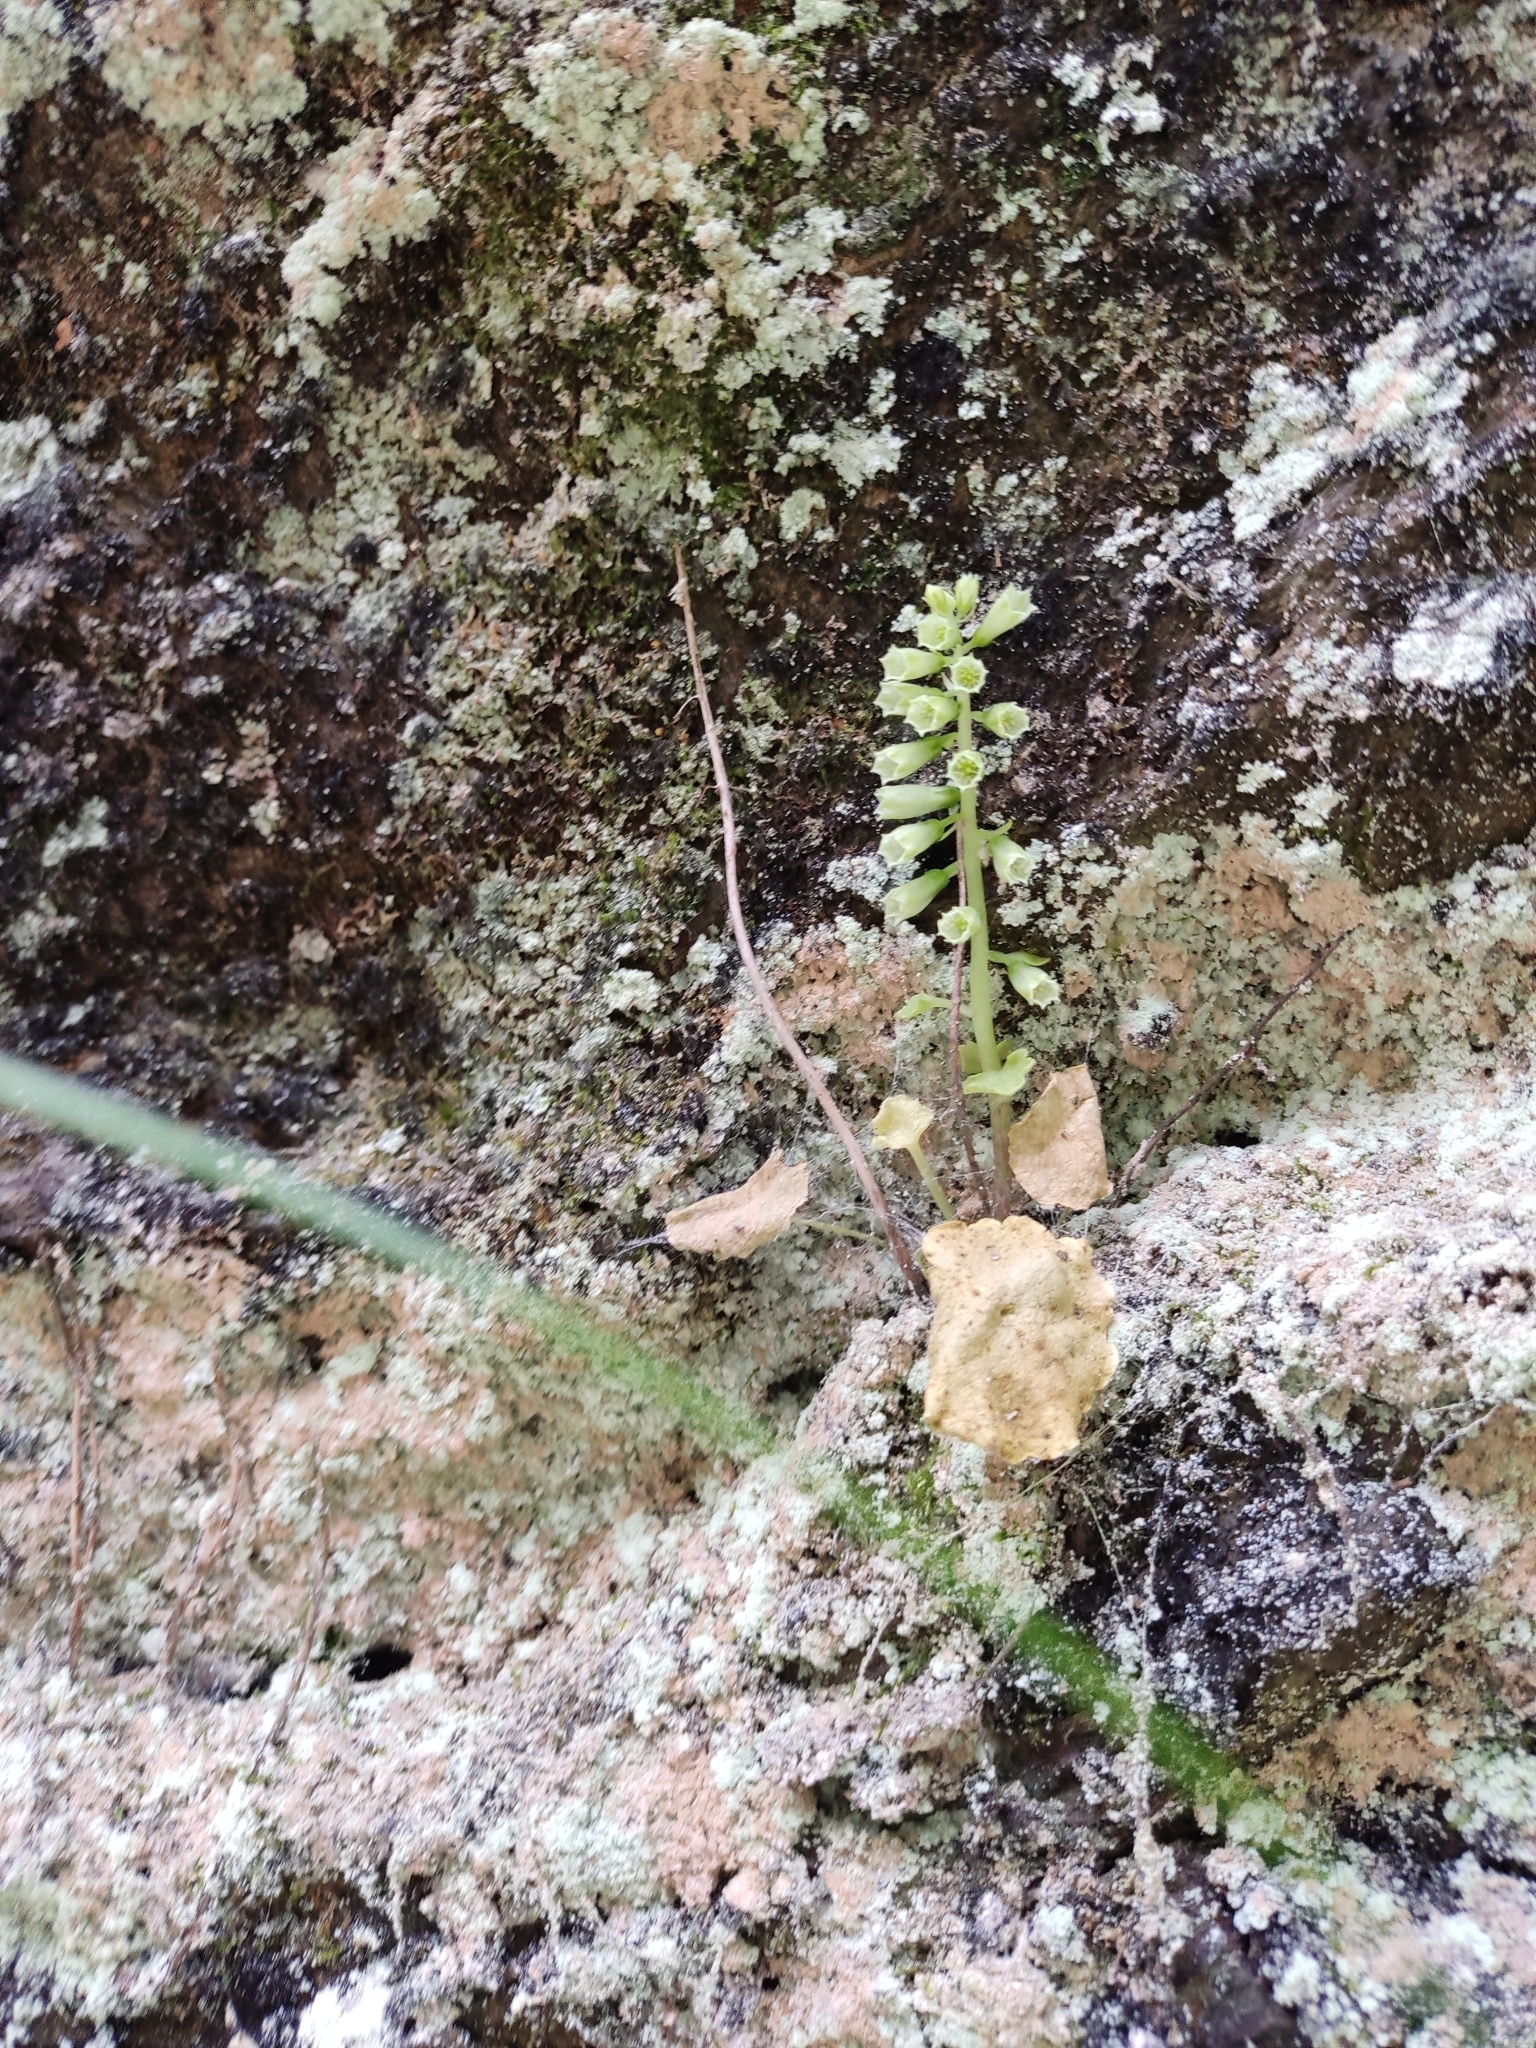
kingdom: Plantae
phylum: Tracheophyta
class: Magnoliopsida
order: Saxifragales
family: Crassulaceae
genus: Umbilicus
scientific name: Umbilicus rupestris
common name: Navelwort
